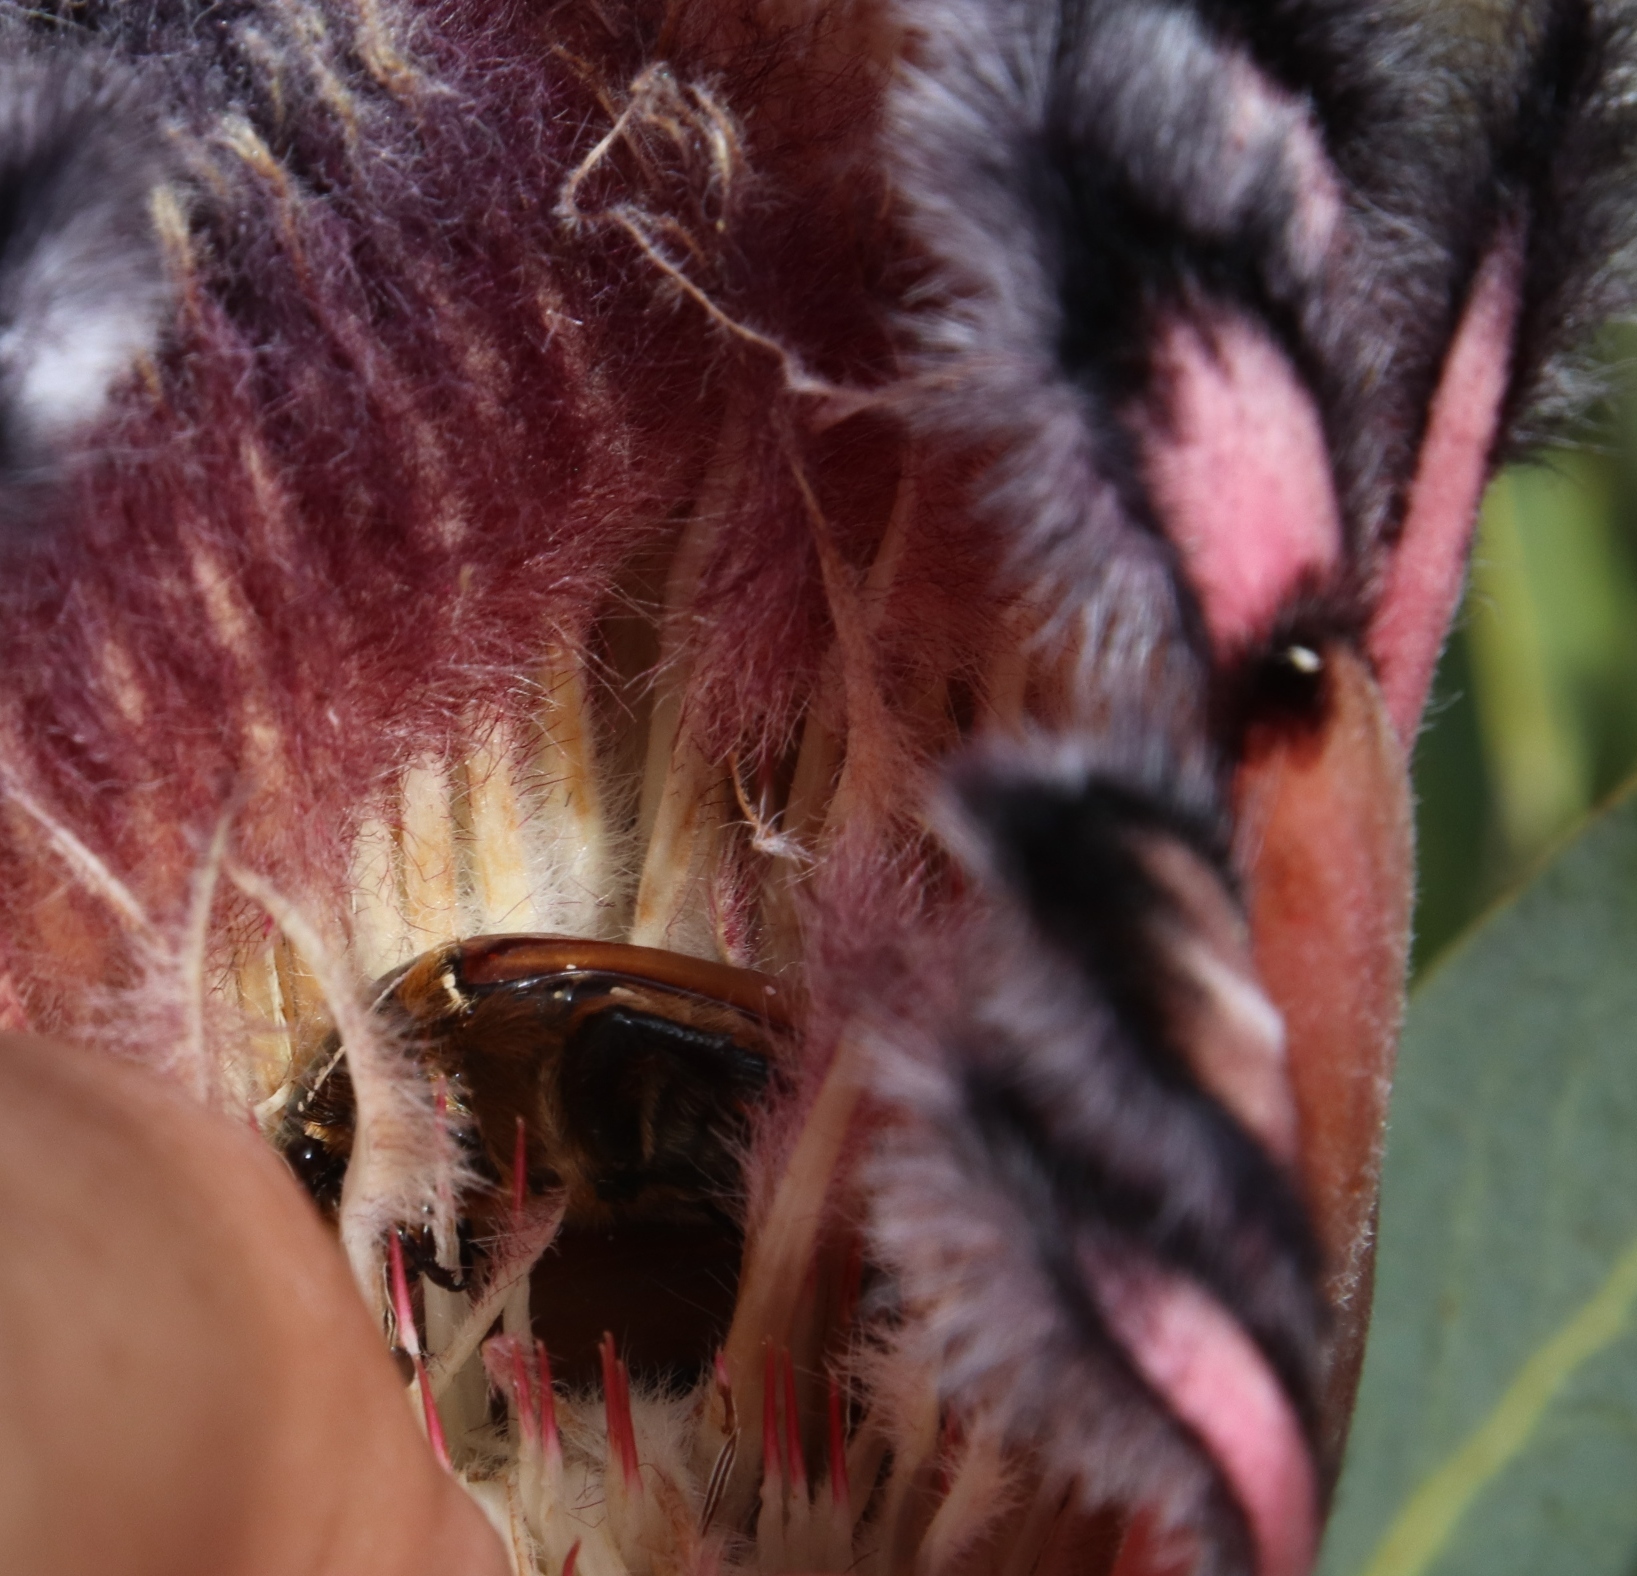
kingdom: Plantae
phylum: Tracheophyta
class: Magnoliopsida
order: Proteales
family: Proteaceae
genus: Protea
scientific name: Protea laurifolia
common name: Grey-leaf sugarbsh
